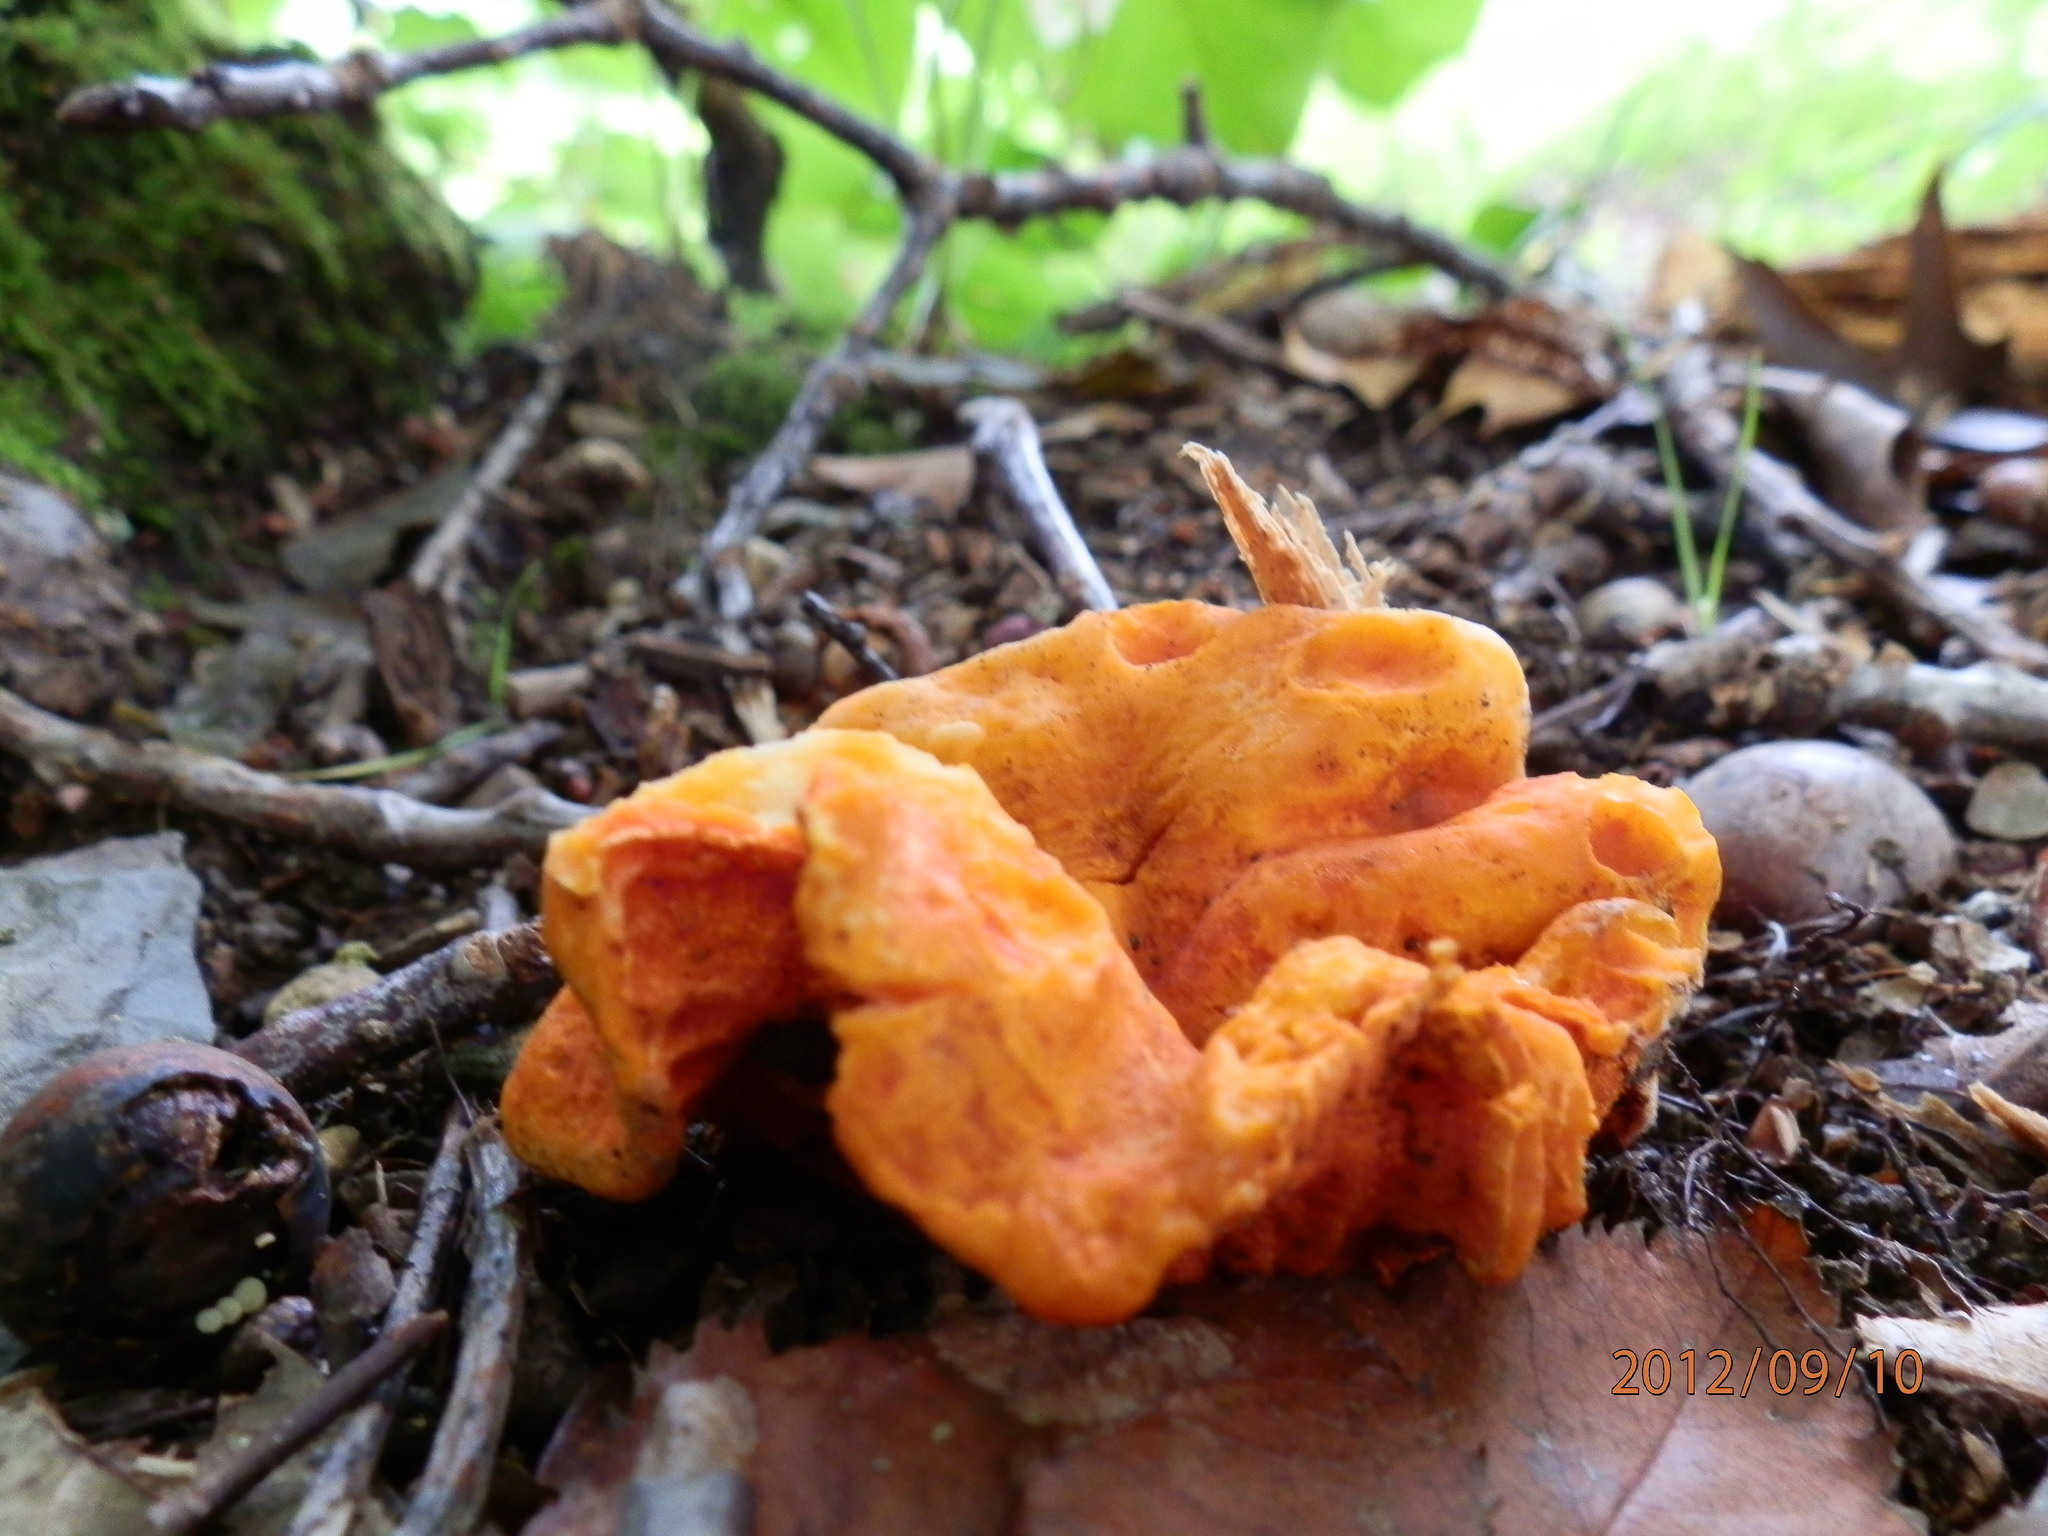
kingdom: Fungi
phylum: Ascomycota
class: Sordariomycetes
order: Hypocreales
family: Hypocreaceae
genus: Hypomyces
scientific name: Hypomyces lactifluorum
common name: Lobster mushroom
